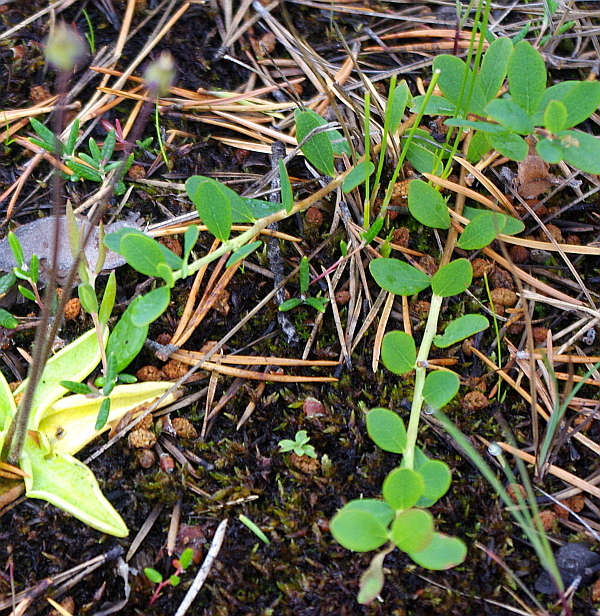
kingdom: Plantae
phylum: Tracheophyta
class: Magnoliopsida
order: Ericales
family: Ericaceae
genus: Vaccinium
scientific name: Vaccinium uliginosum
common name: Bog bilberry
